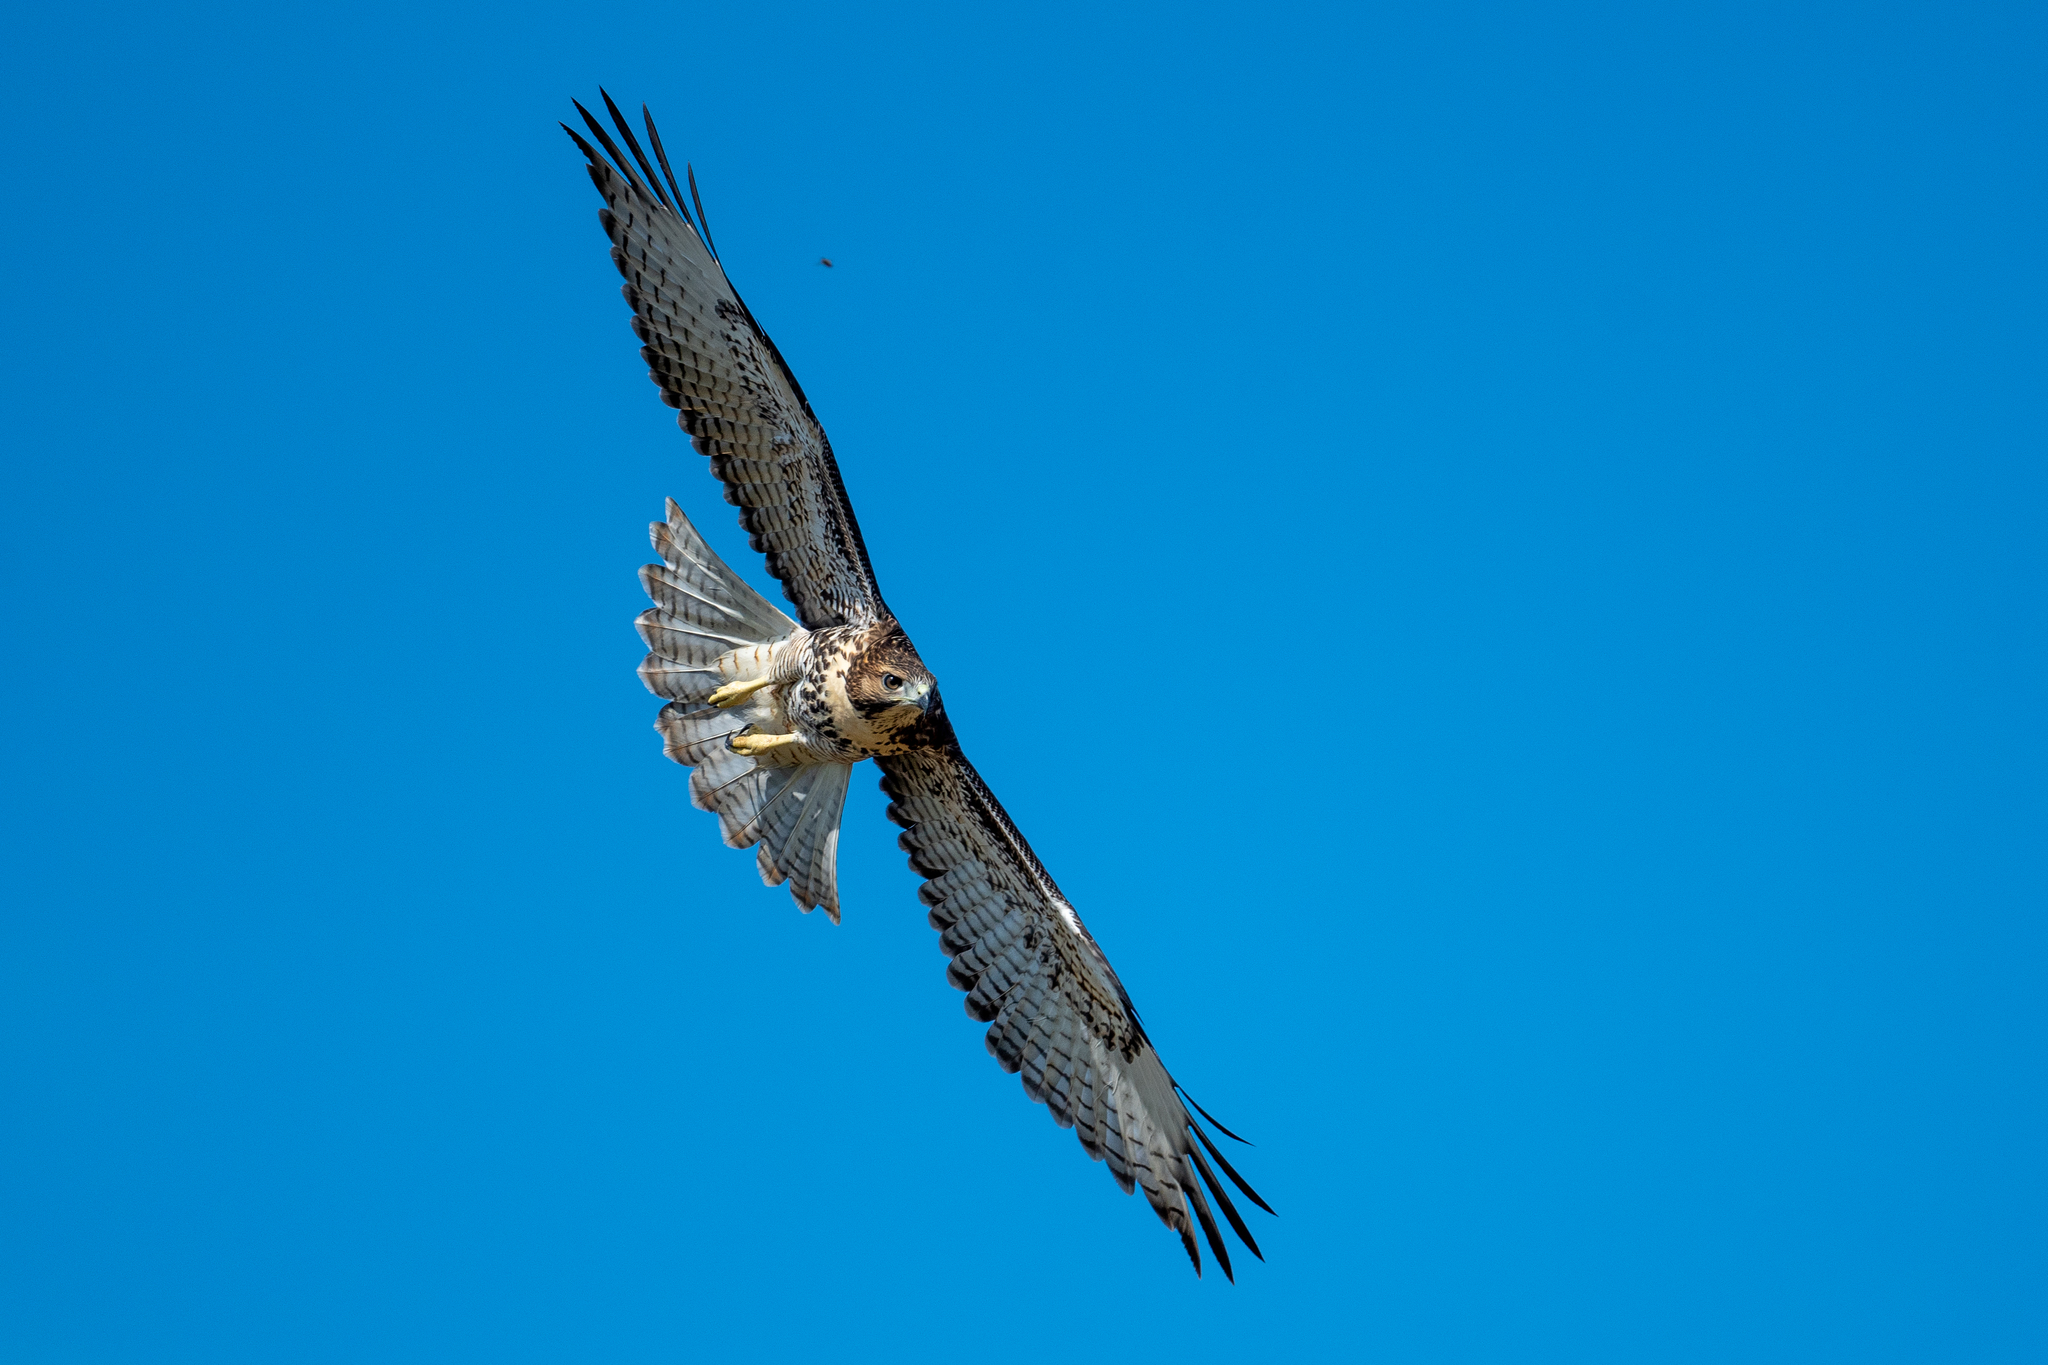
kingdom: Animalia
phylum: Chordata
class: Aves
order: Accipitriformes
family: Accipitridae
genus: Buteo
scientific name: Buteo jamaicensis
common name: Red-tailed hawk
